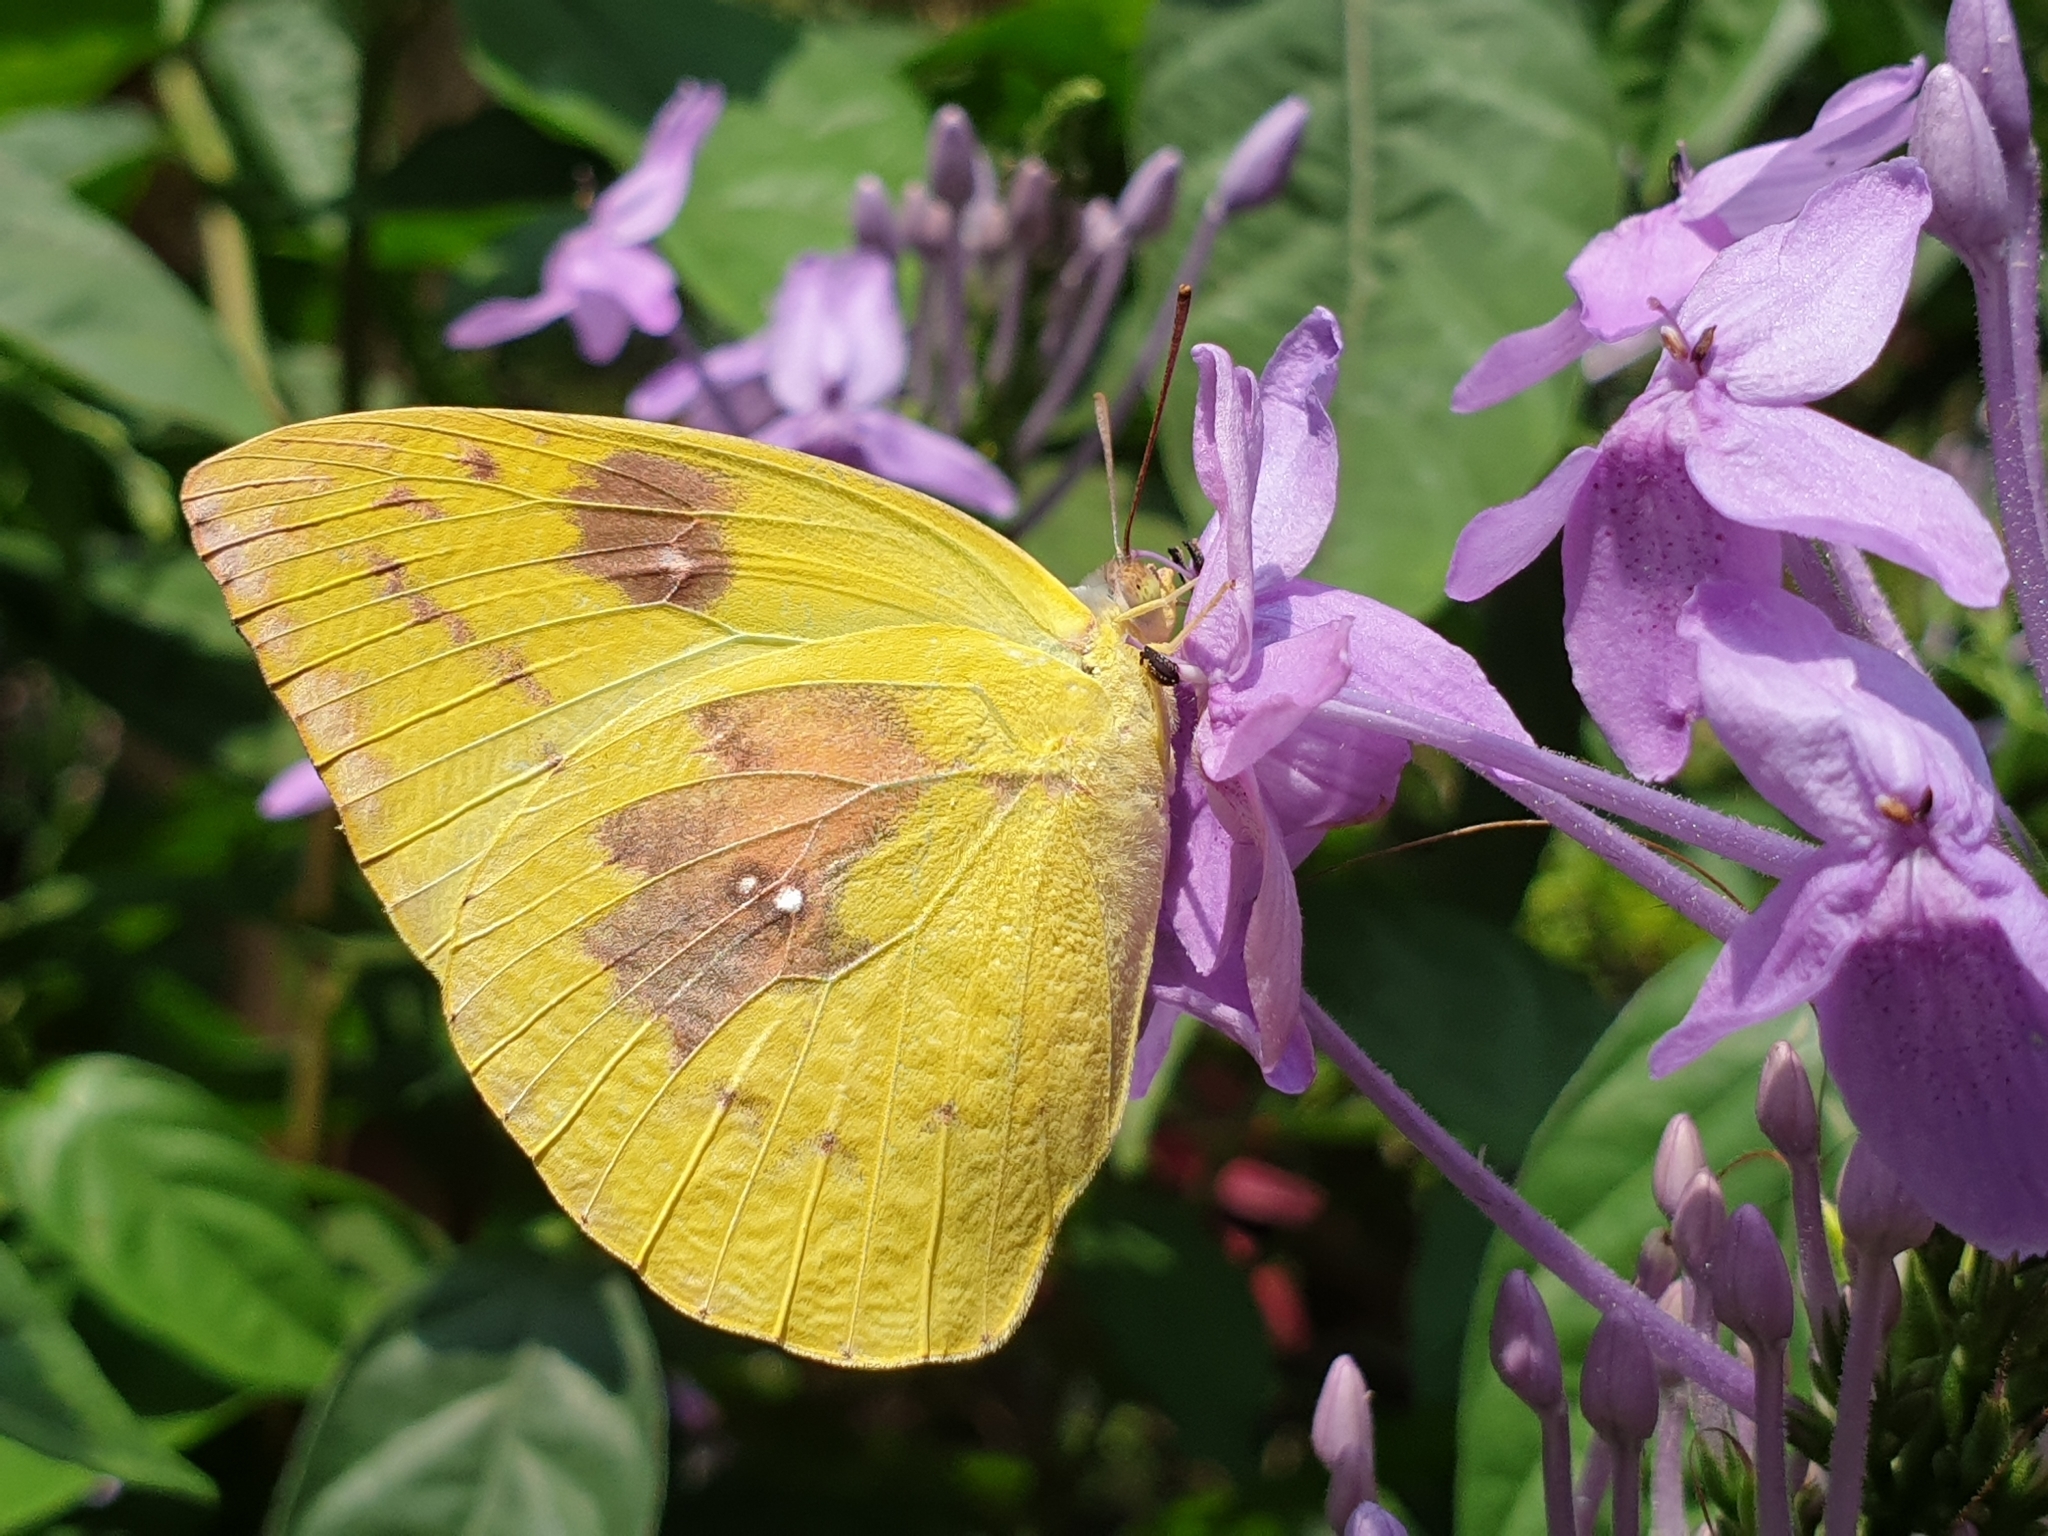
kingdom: Animalia
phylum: Arthropoda
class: Insecta
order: Lepidoptera
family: Pieridae
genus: Catopsilia
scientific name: Catopsilia pomona
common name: Common emigrant
